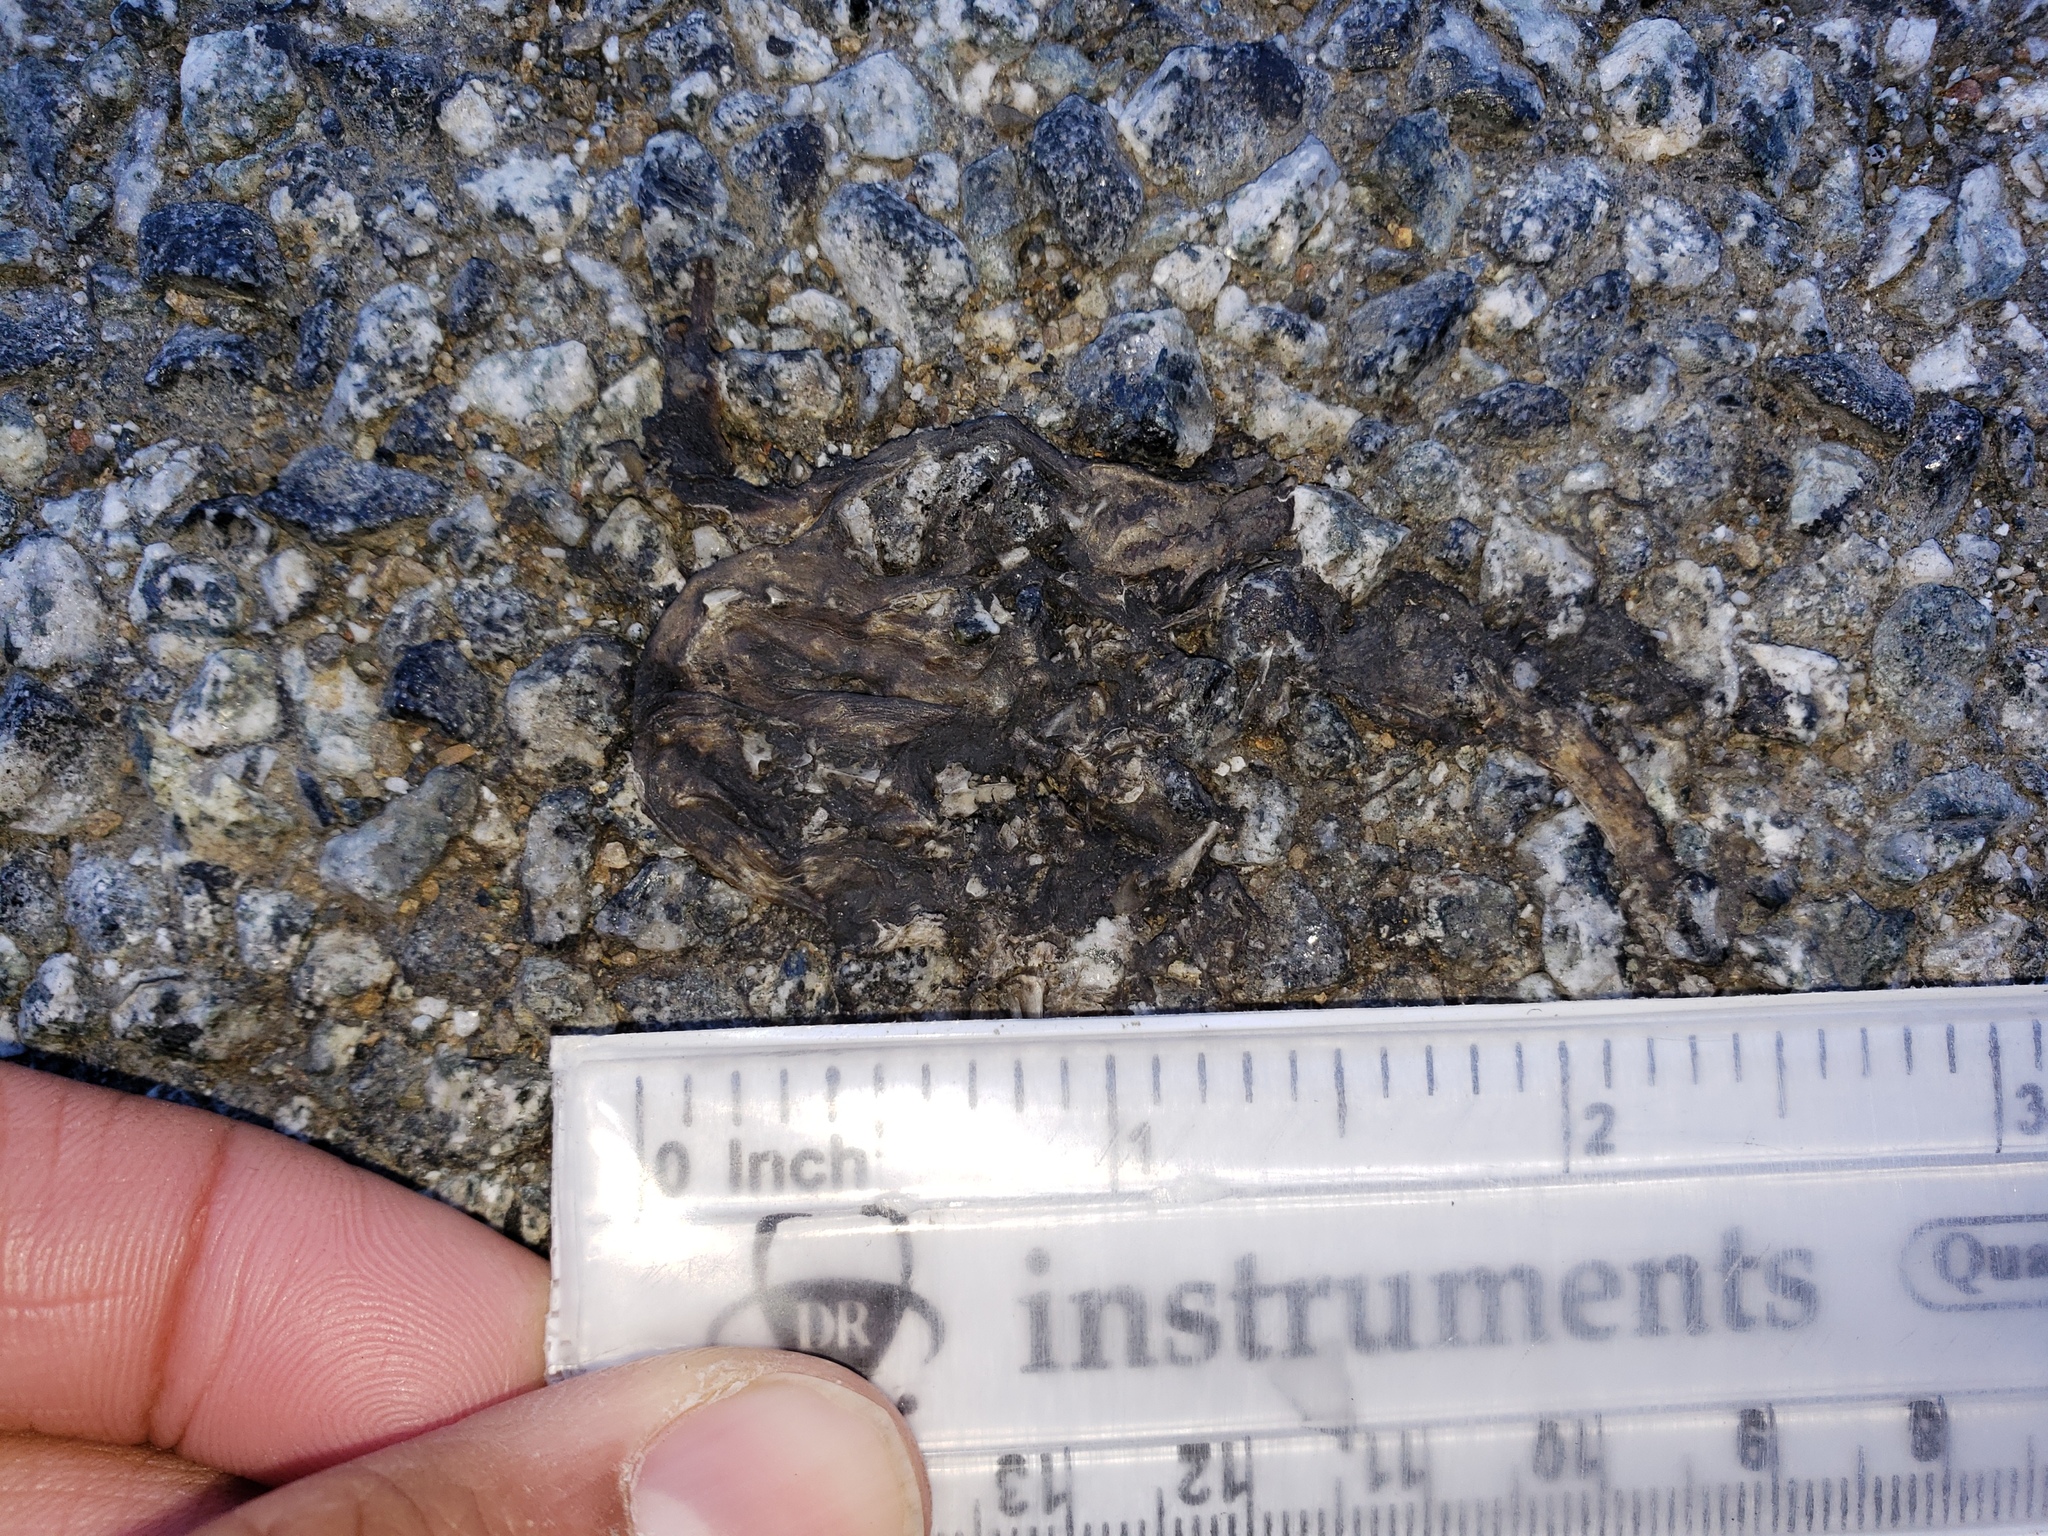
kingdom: Animalia
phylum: Chordata
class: Amphibia
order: Caudata
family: Salamandridae
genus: Taricha
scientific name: Taricha
